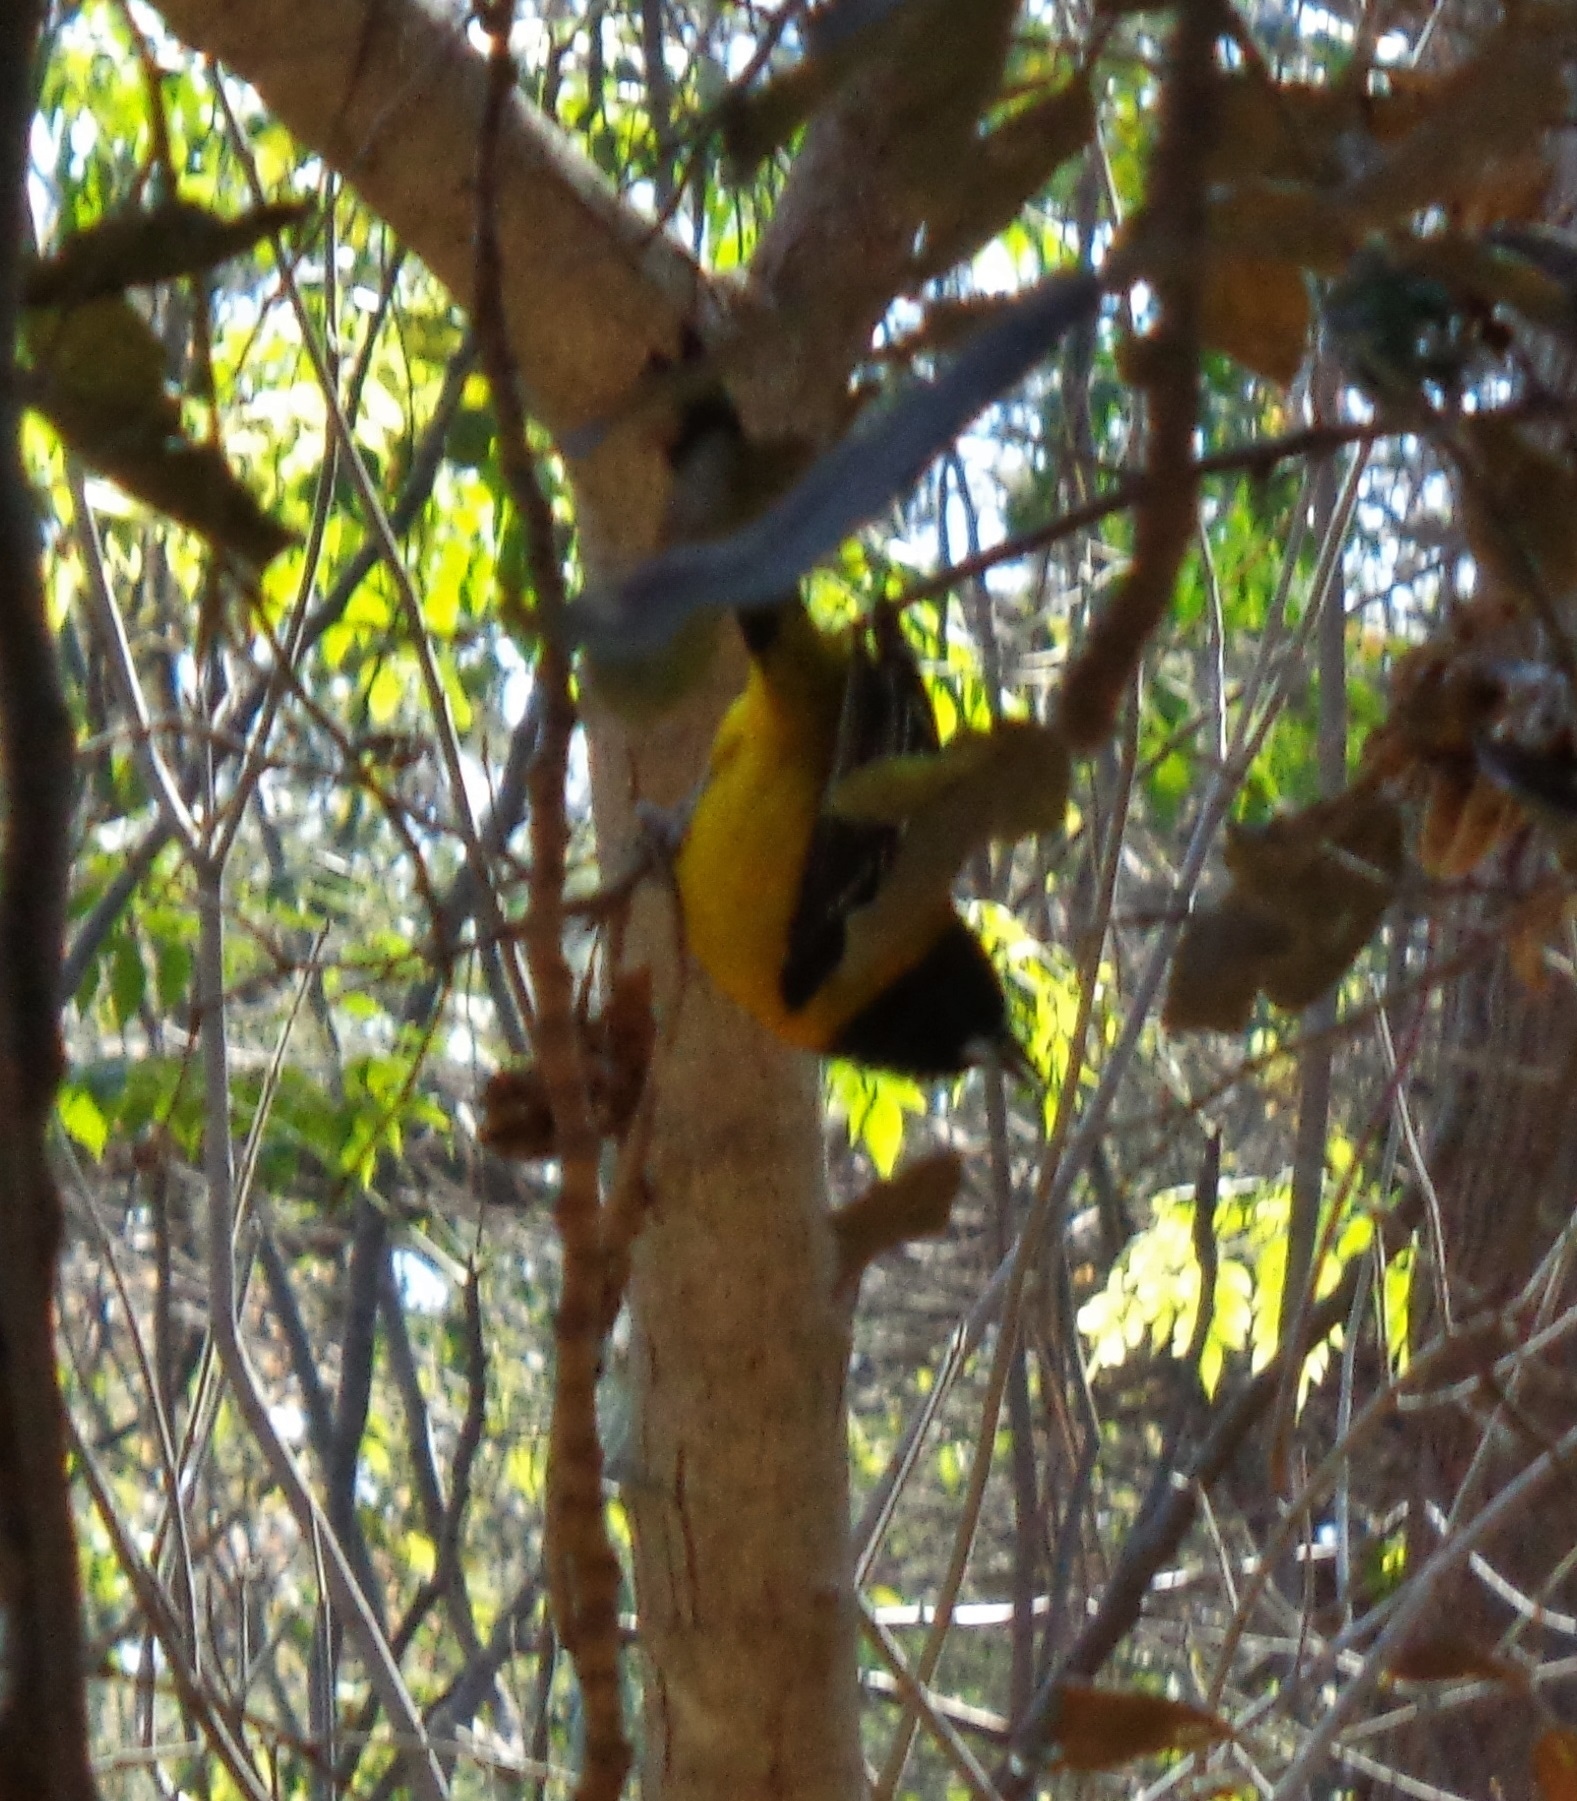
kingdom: Animalia
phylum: Chordata
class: Aves
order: Passeriformes
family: Icteridae
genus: Icterus
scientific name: Icterus graduacauda
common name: Audubon's oriole
